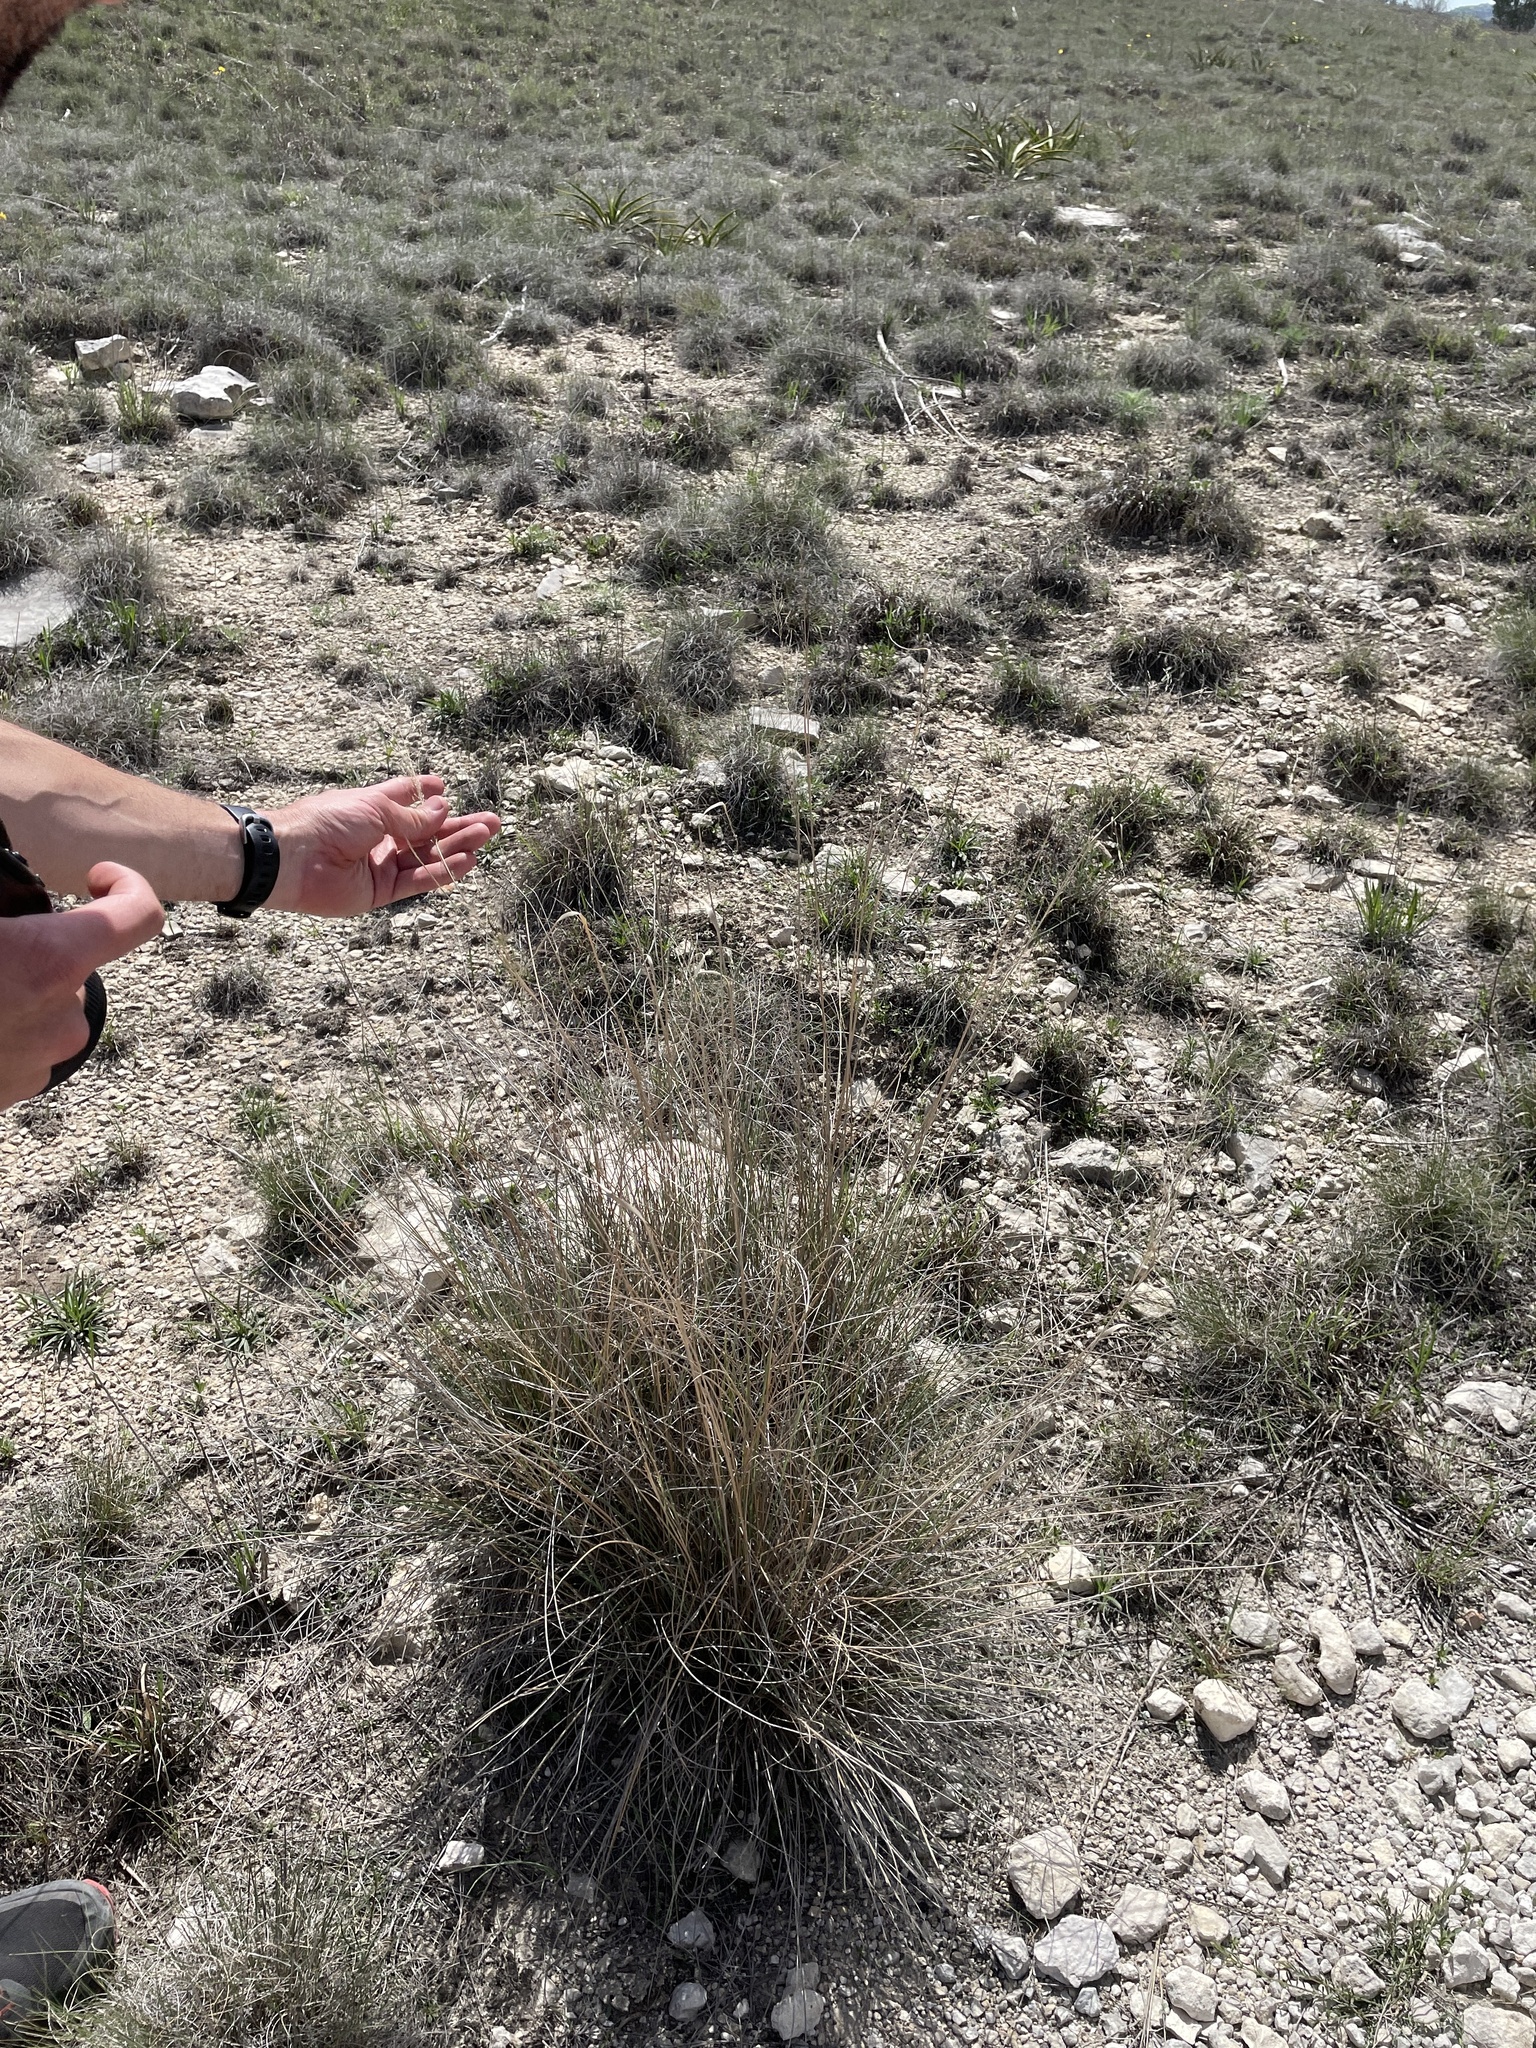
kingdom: Plantae
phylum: Tracheophyta
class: Liliopsida
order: Poales
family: Poaceae
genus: Muhlenbergia
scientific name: Muhlenbergia involuta
